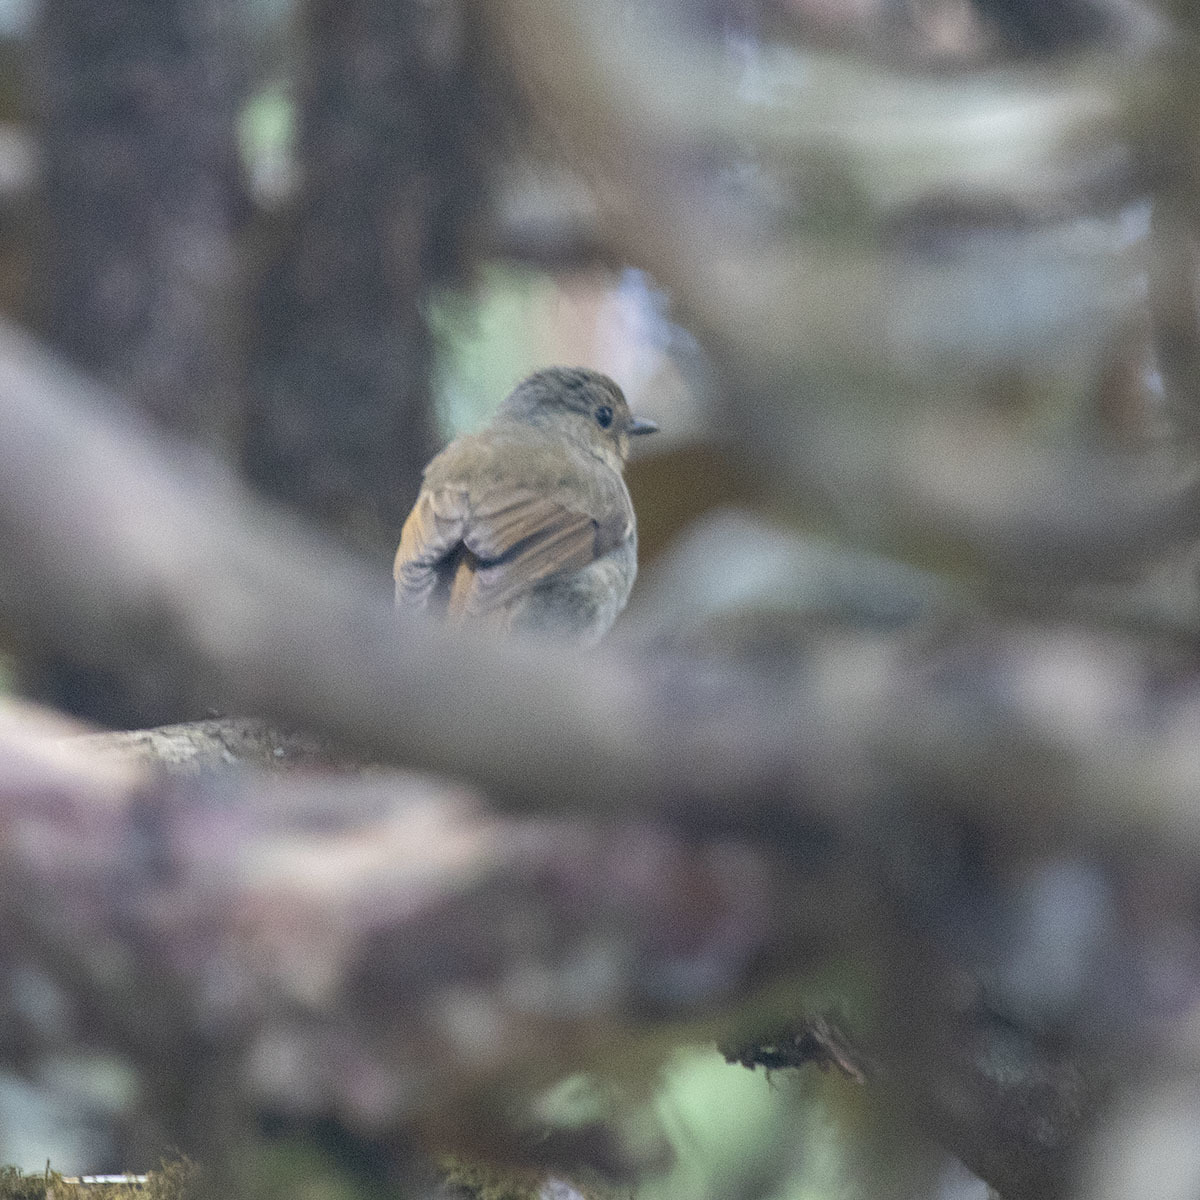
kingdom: Animalia
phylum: Chordata
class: Aves
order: Passeriformes
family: Muscicapidae
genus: Ficedula
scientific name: Ficedula strophiata
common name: Rufous-gorgeted flycatcher
